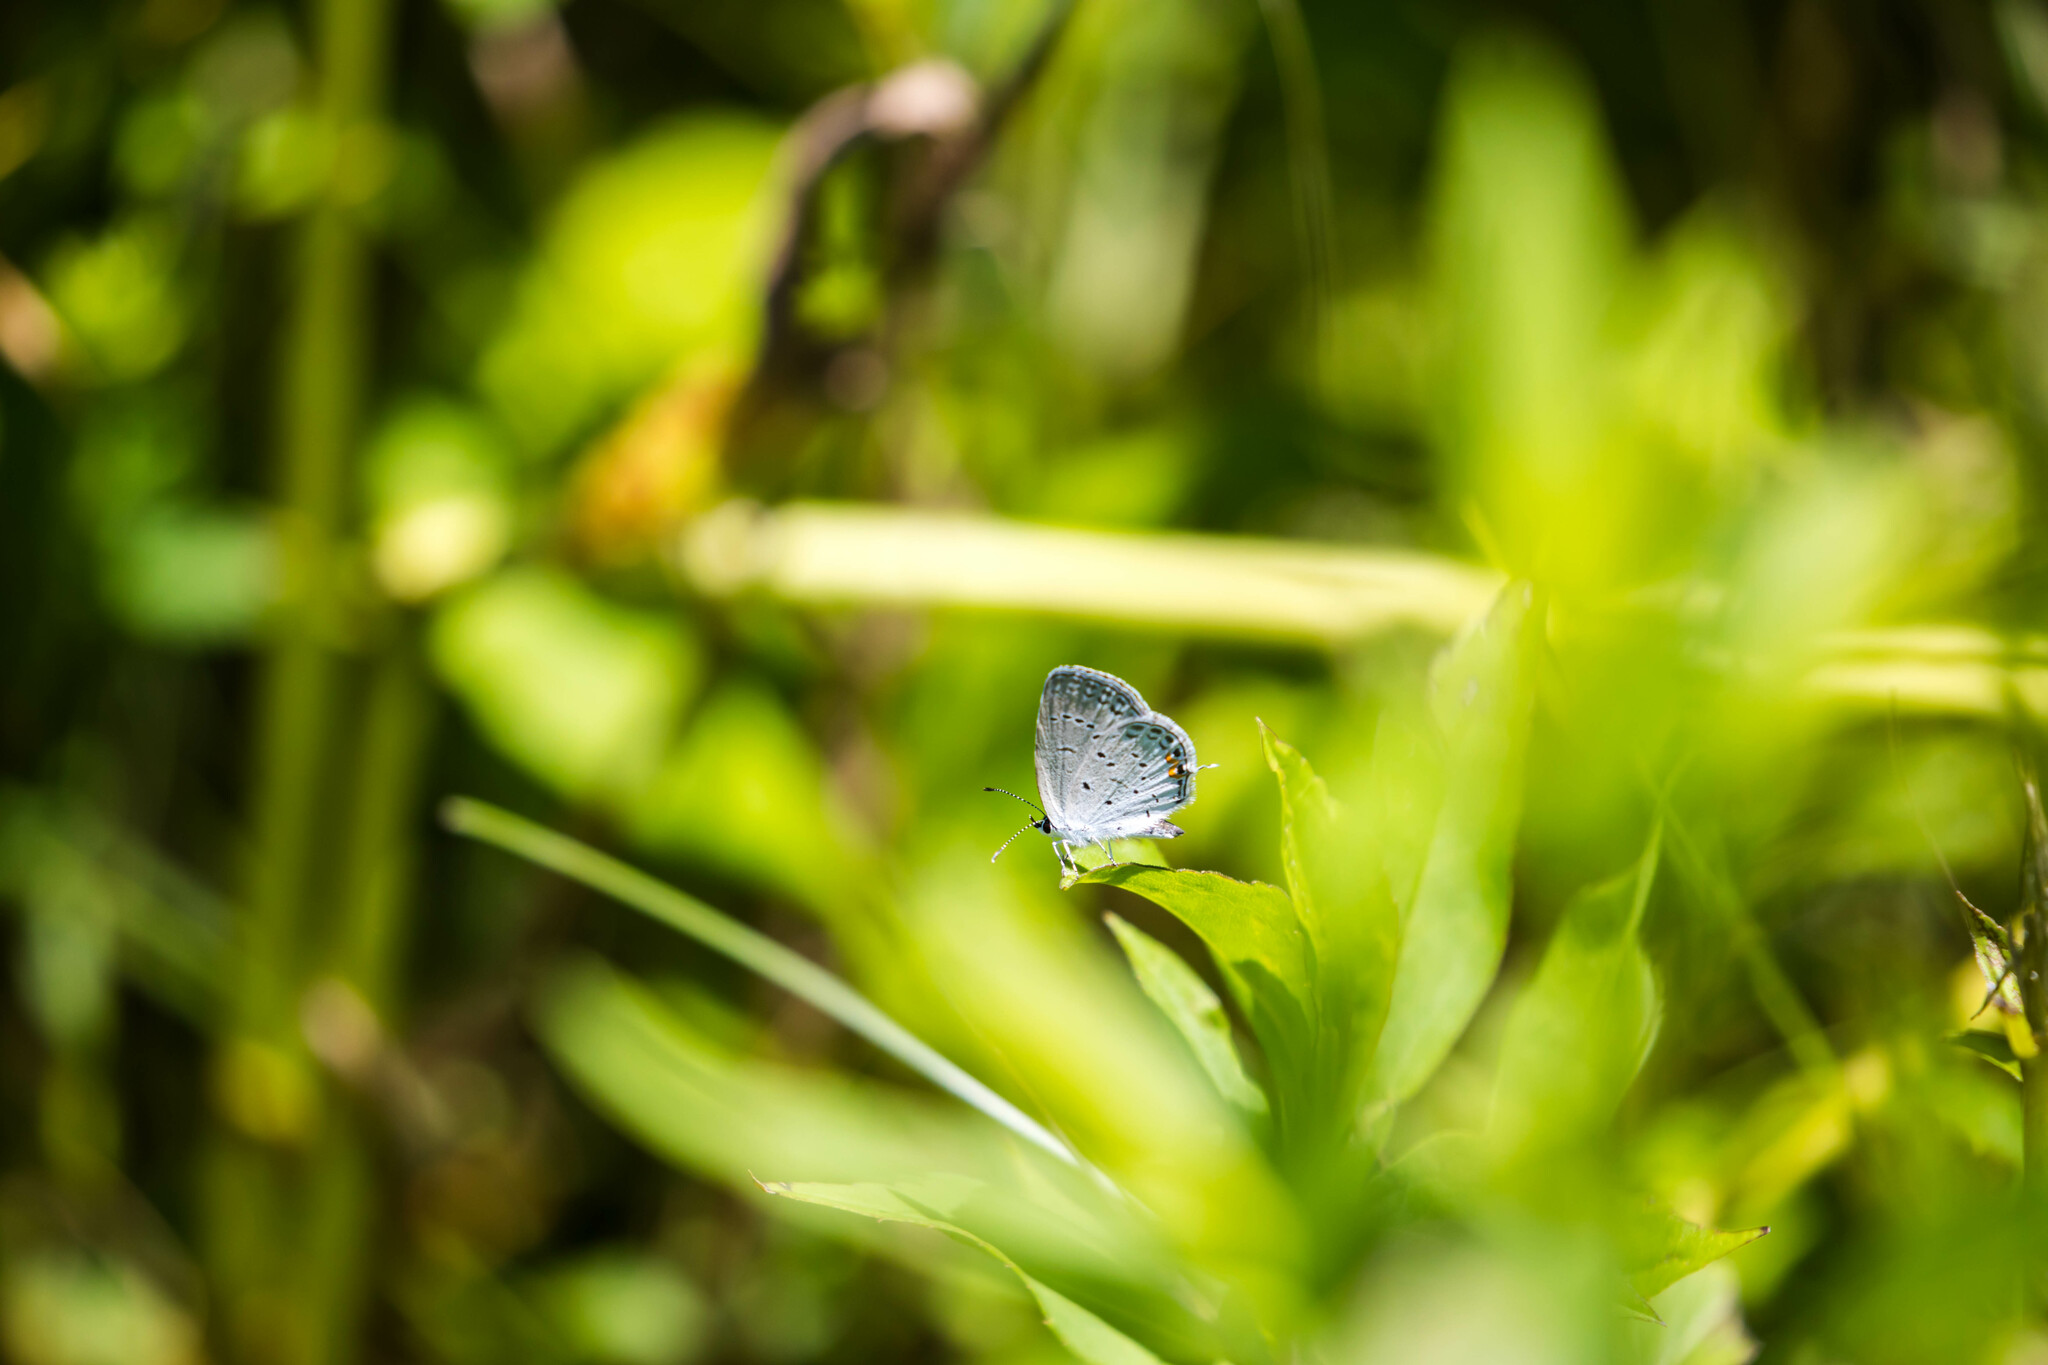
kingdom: Animalia
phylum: Arthropoda
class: Insecta
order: Lepidoptera
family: Lycaenidae
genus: Elkalyce
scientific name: Elkalyce comyntas
